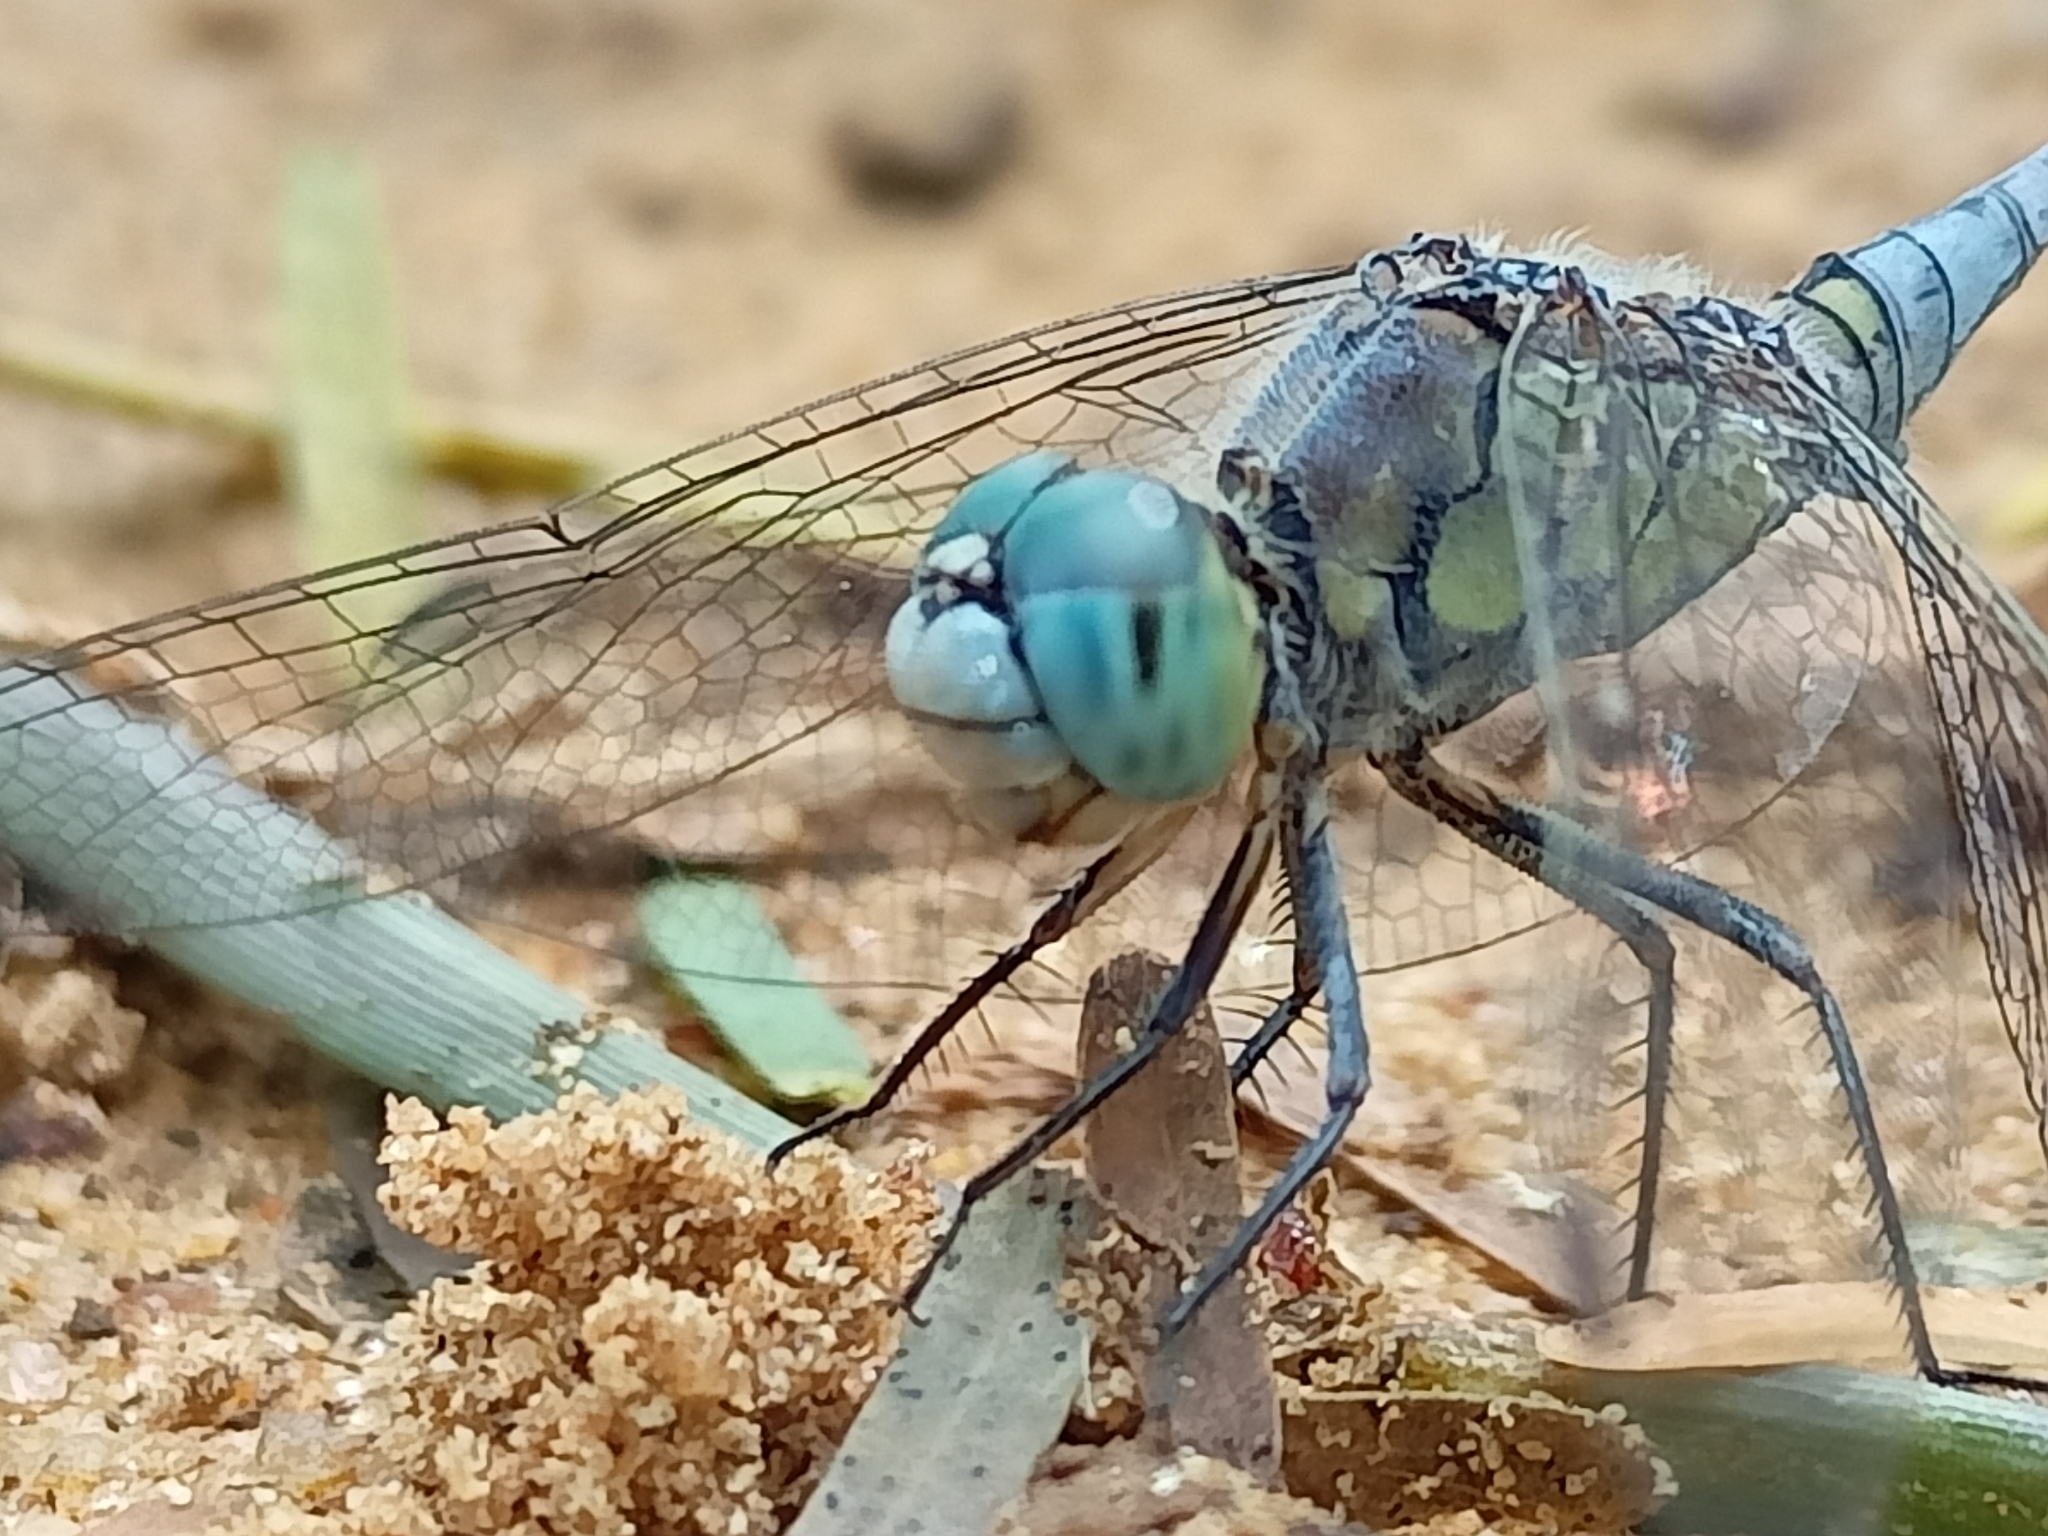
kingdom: Animalia
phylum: Arthropoda
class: Insecta
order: Odonata
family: Libellulidae
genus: Diplacodes
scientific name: Diplacodes trivialis
